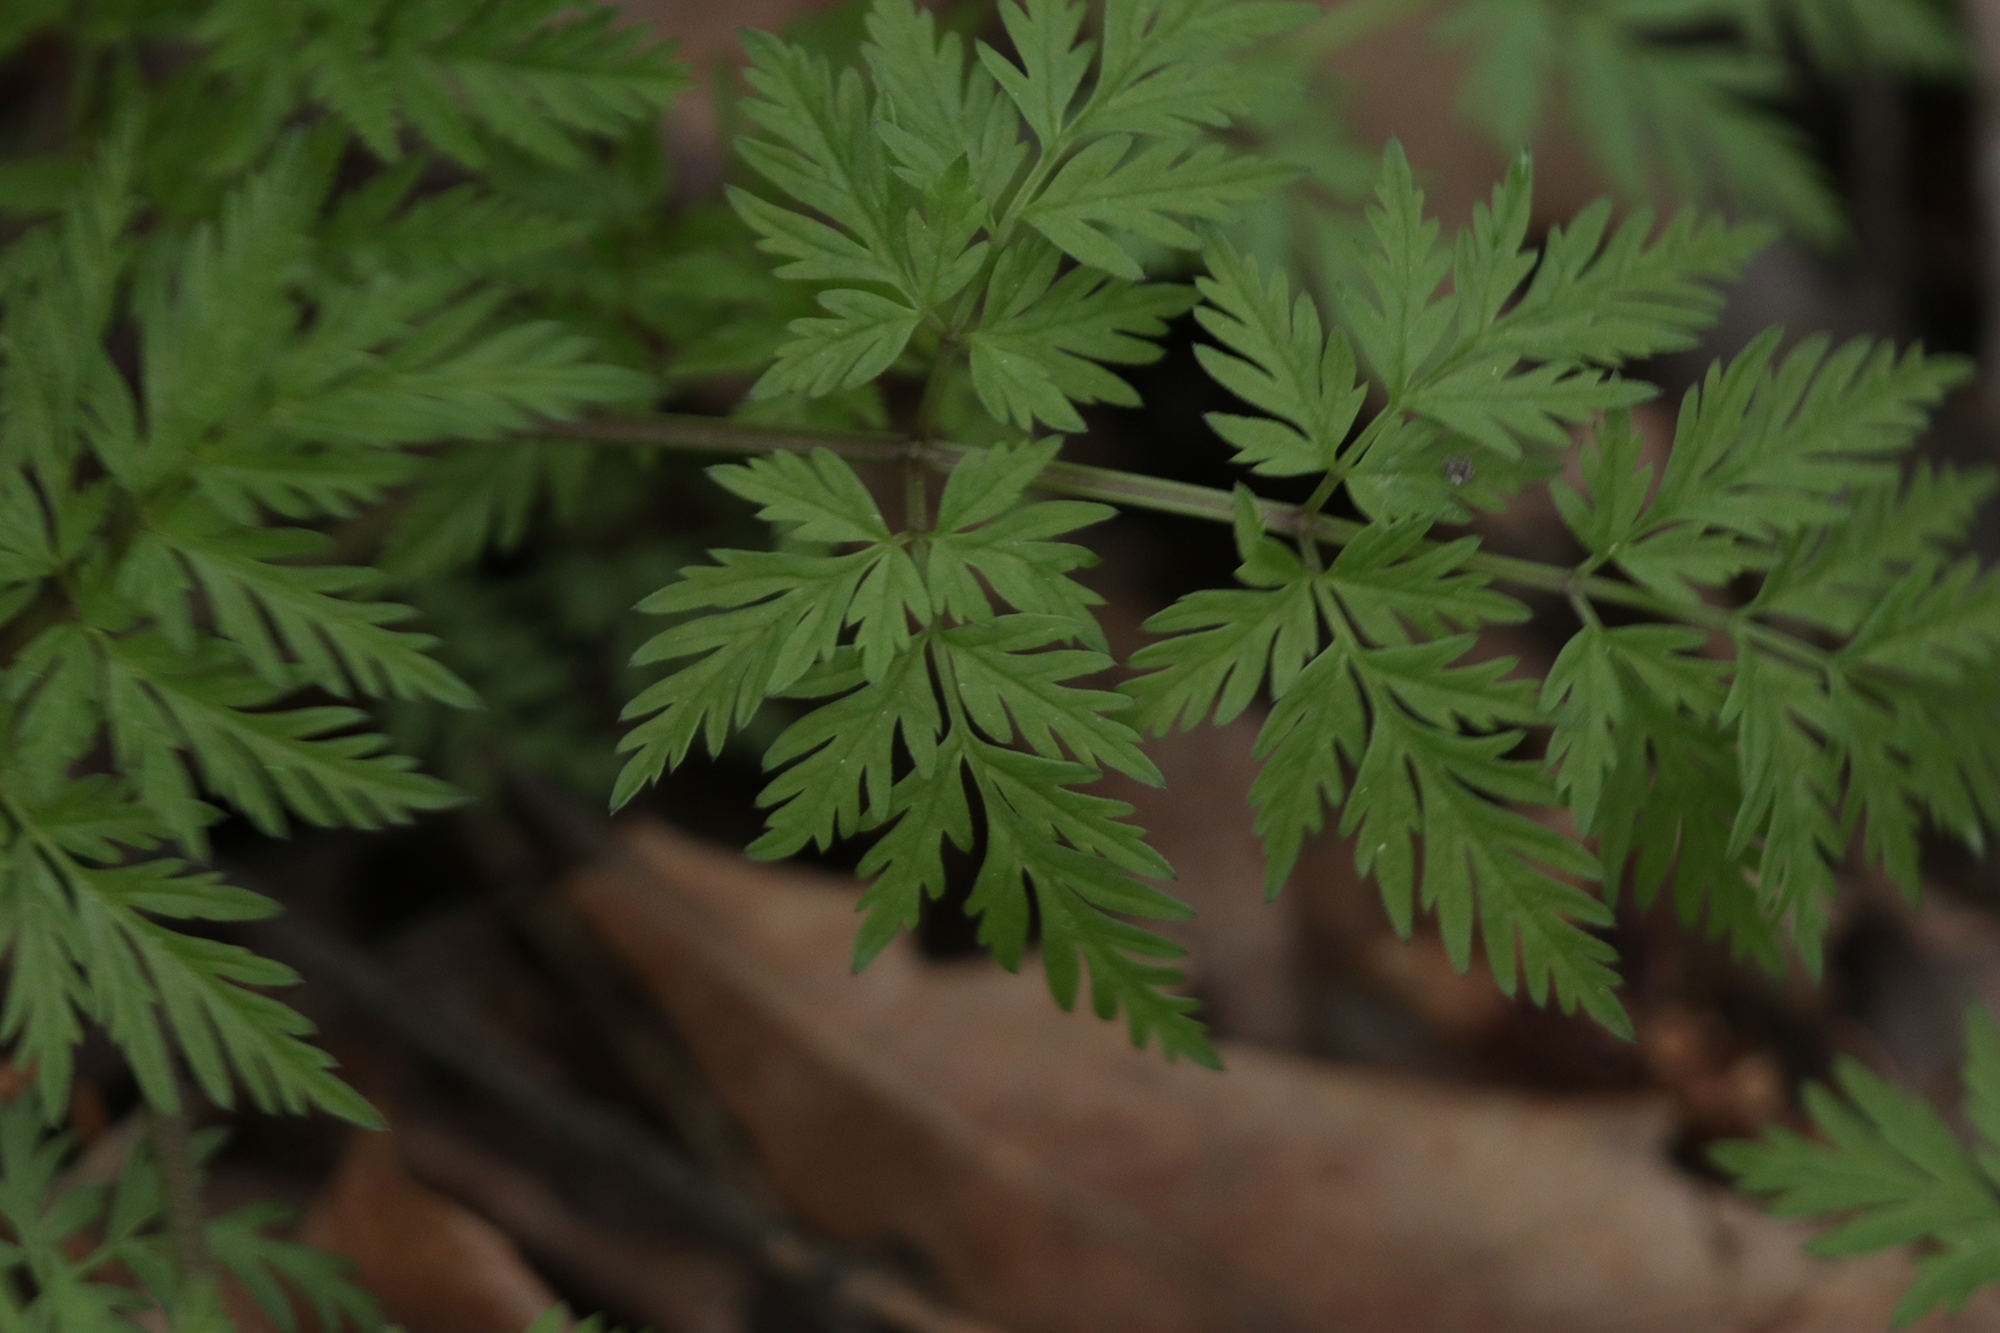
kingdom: Plantae
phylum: Tracheophyta
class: Magnoliopsida
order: Apiales
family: Apiaceae
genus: Anthriscus
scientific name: Anthriscus sylvestris
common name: Cow parsley
